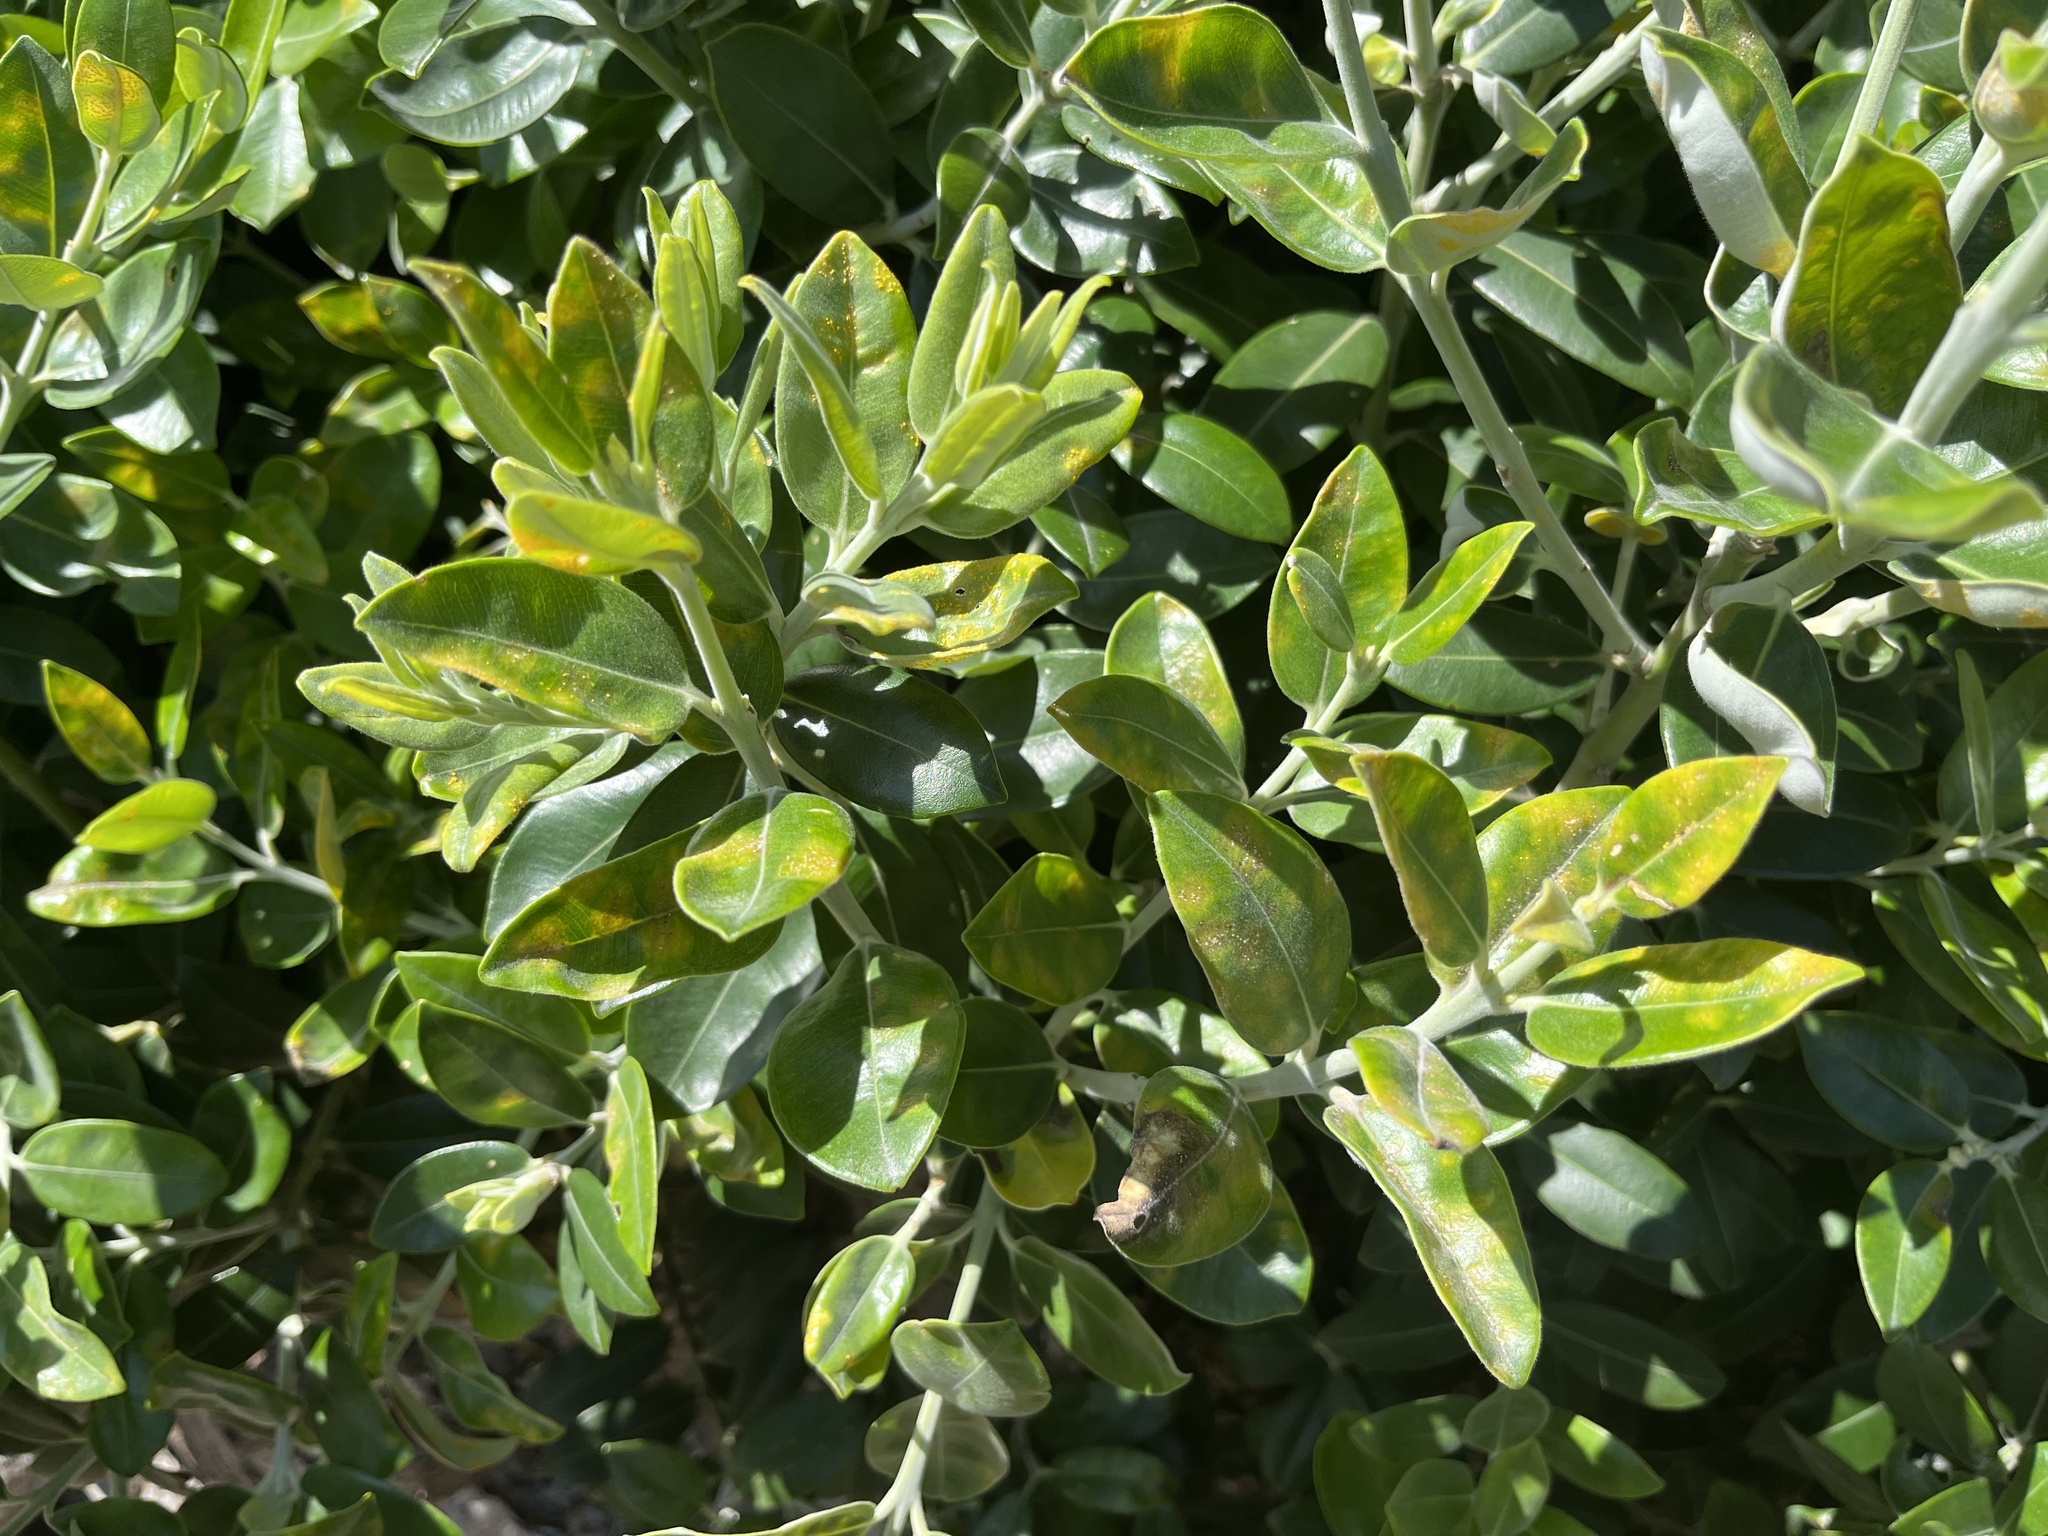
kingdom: Fungi
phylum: Basidiomycota
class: Pucciniomycetes
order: Pucciniales
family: Sphaerophragmiaceae
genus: Austropuccinia
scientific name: Austropuccinia psidii
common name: Myrtle rust
